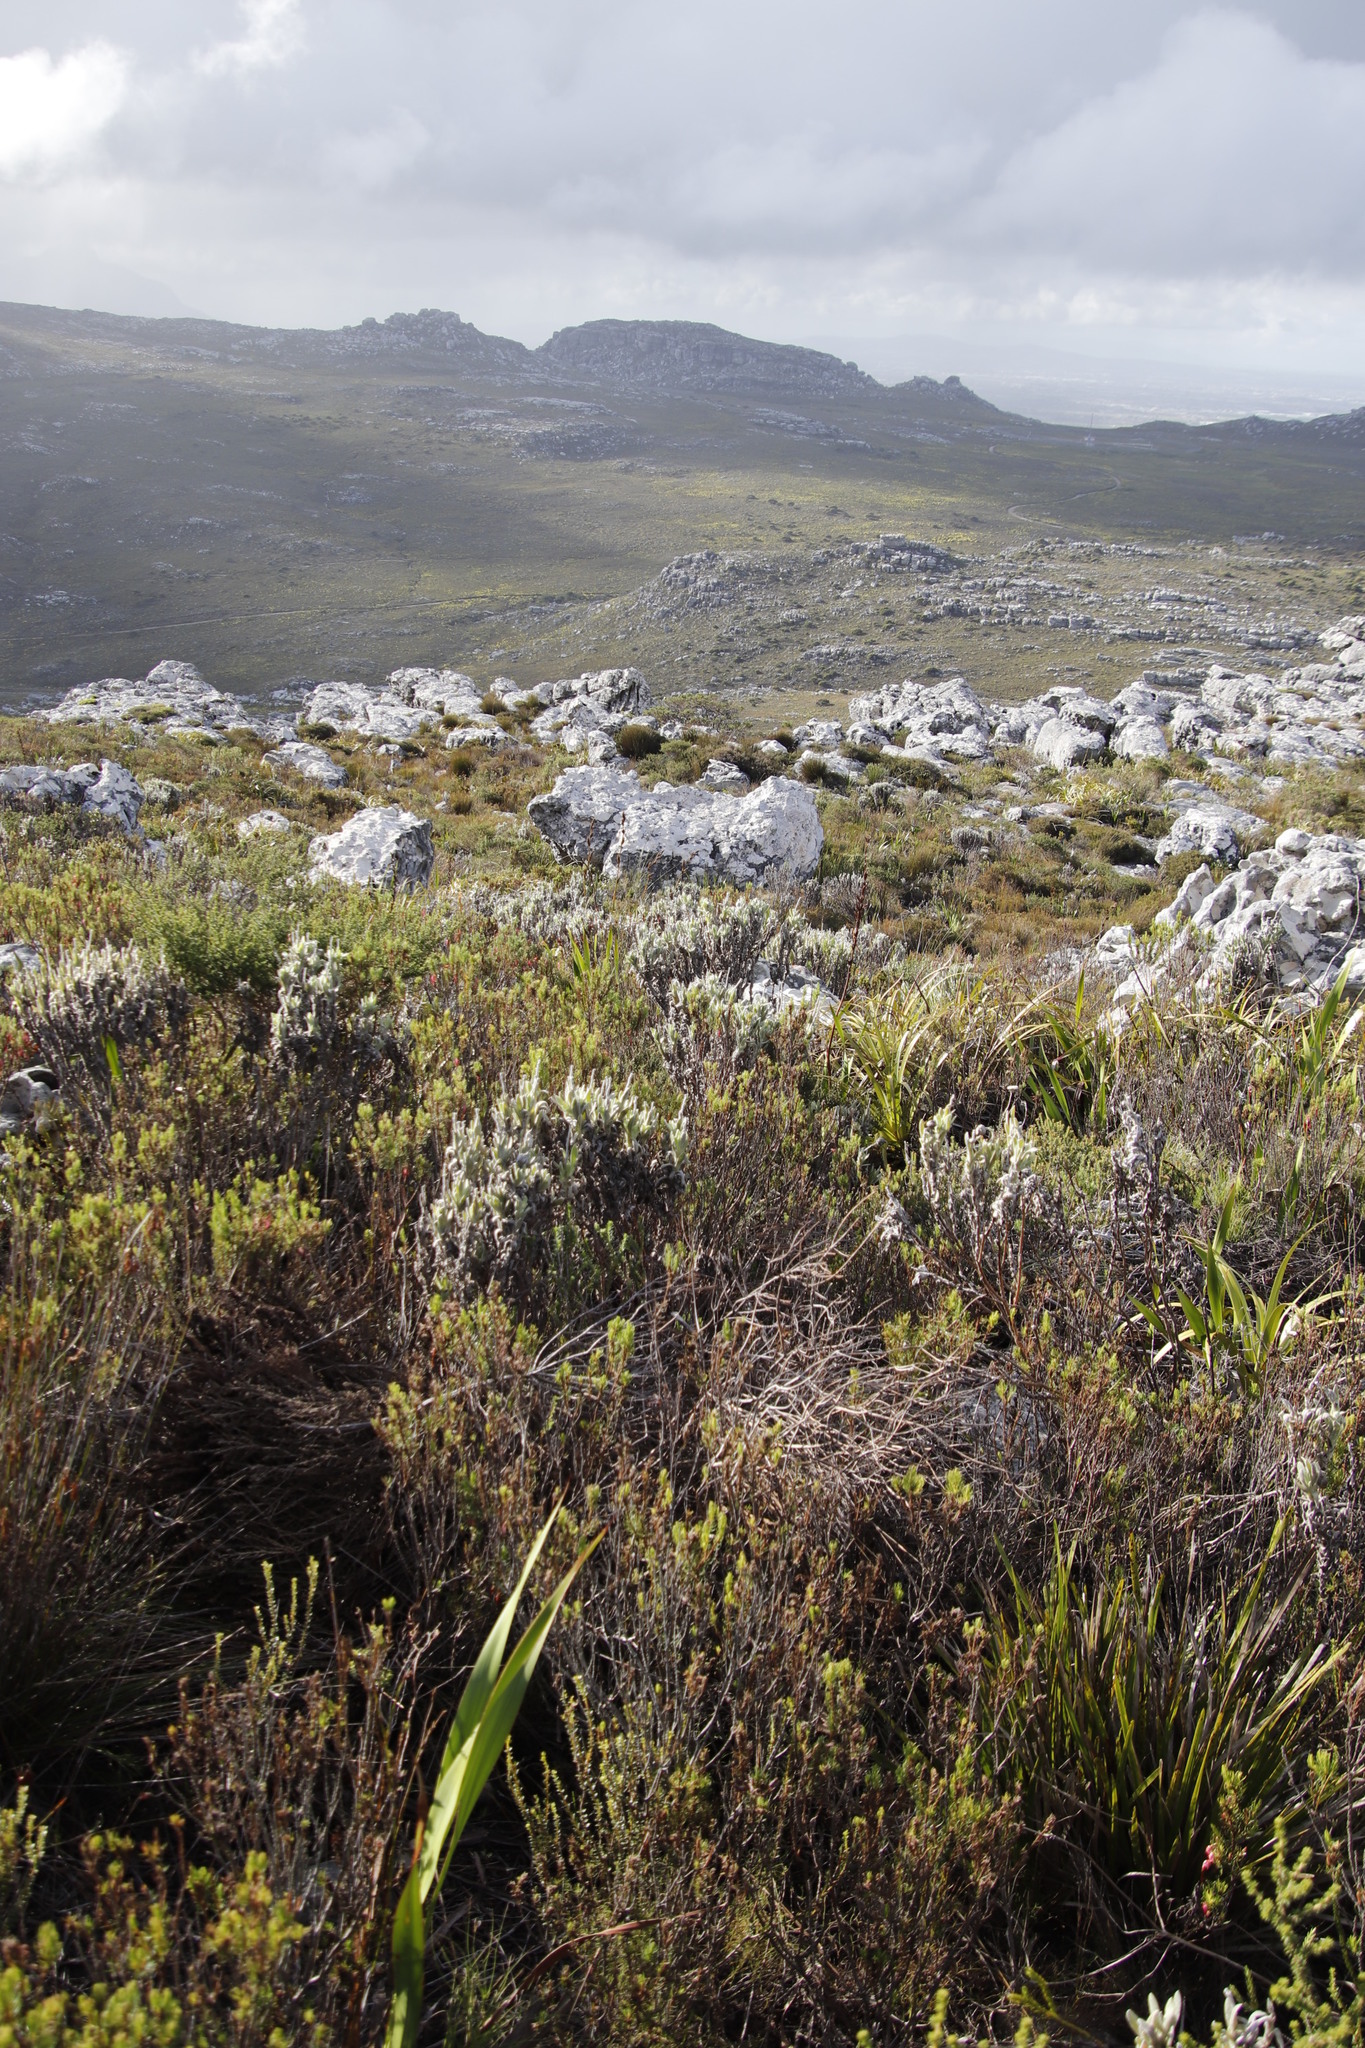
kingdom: Plantae
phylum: Tracheophyta
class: Magnoliopsida
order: Asterales
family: Asteraceae
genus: Syncarpha
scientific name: Syncarpha vestita
